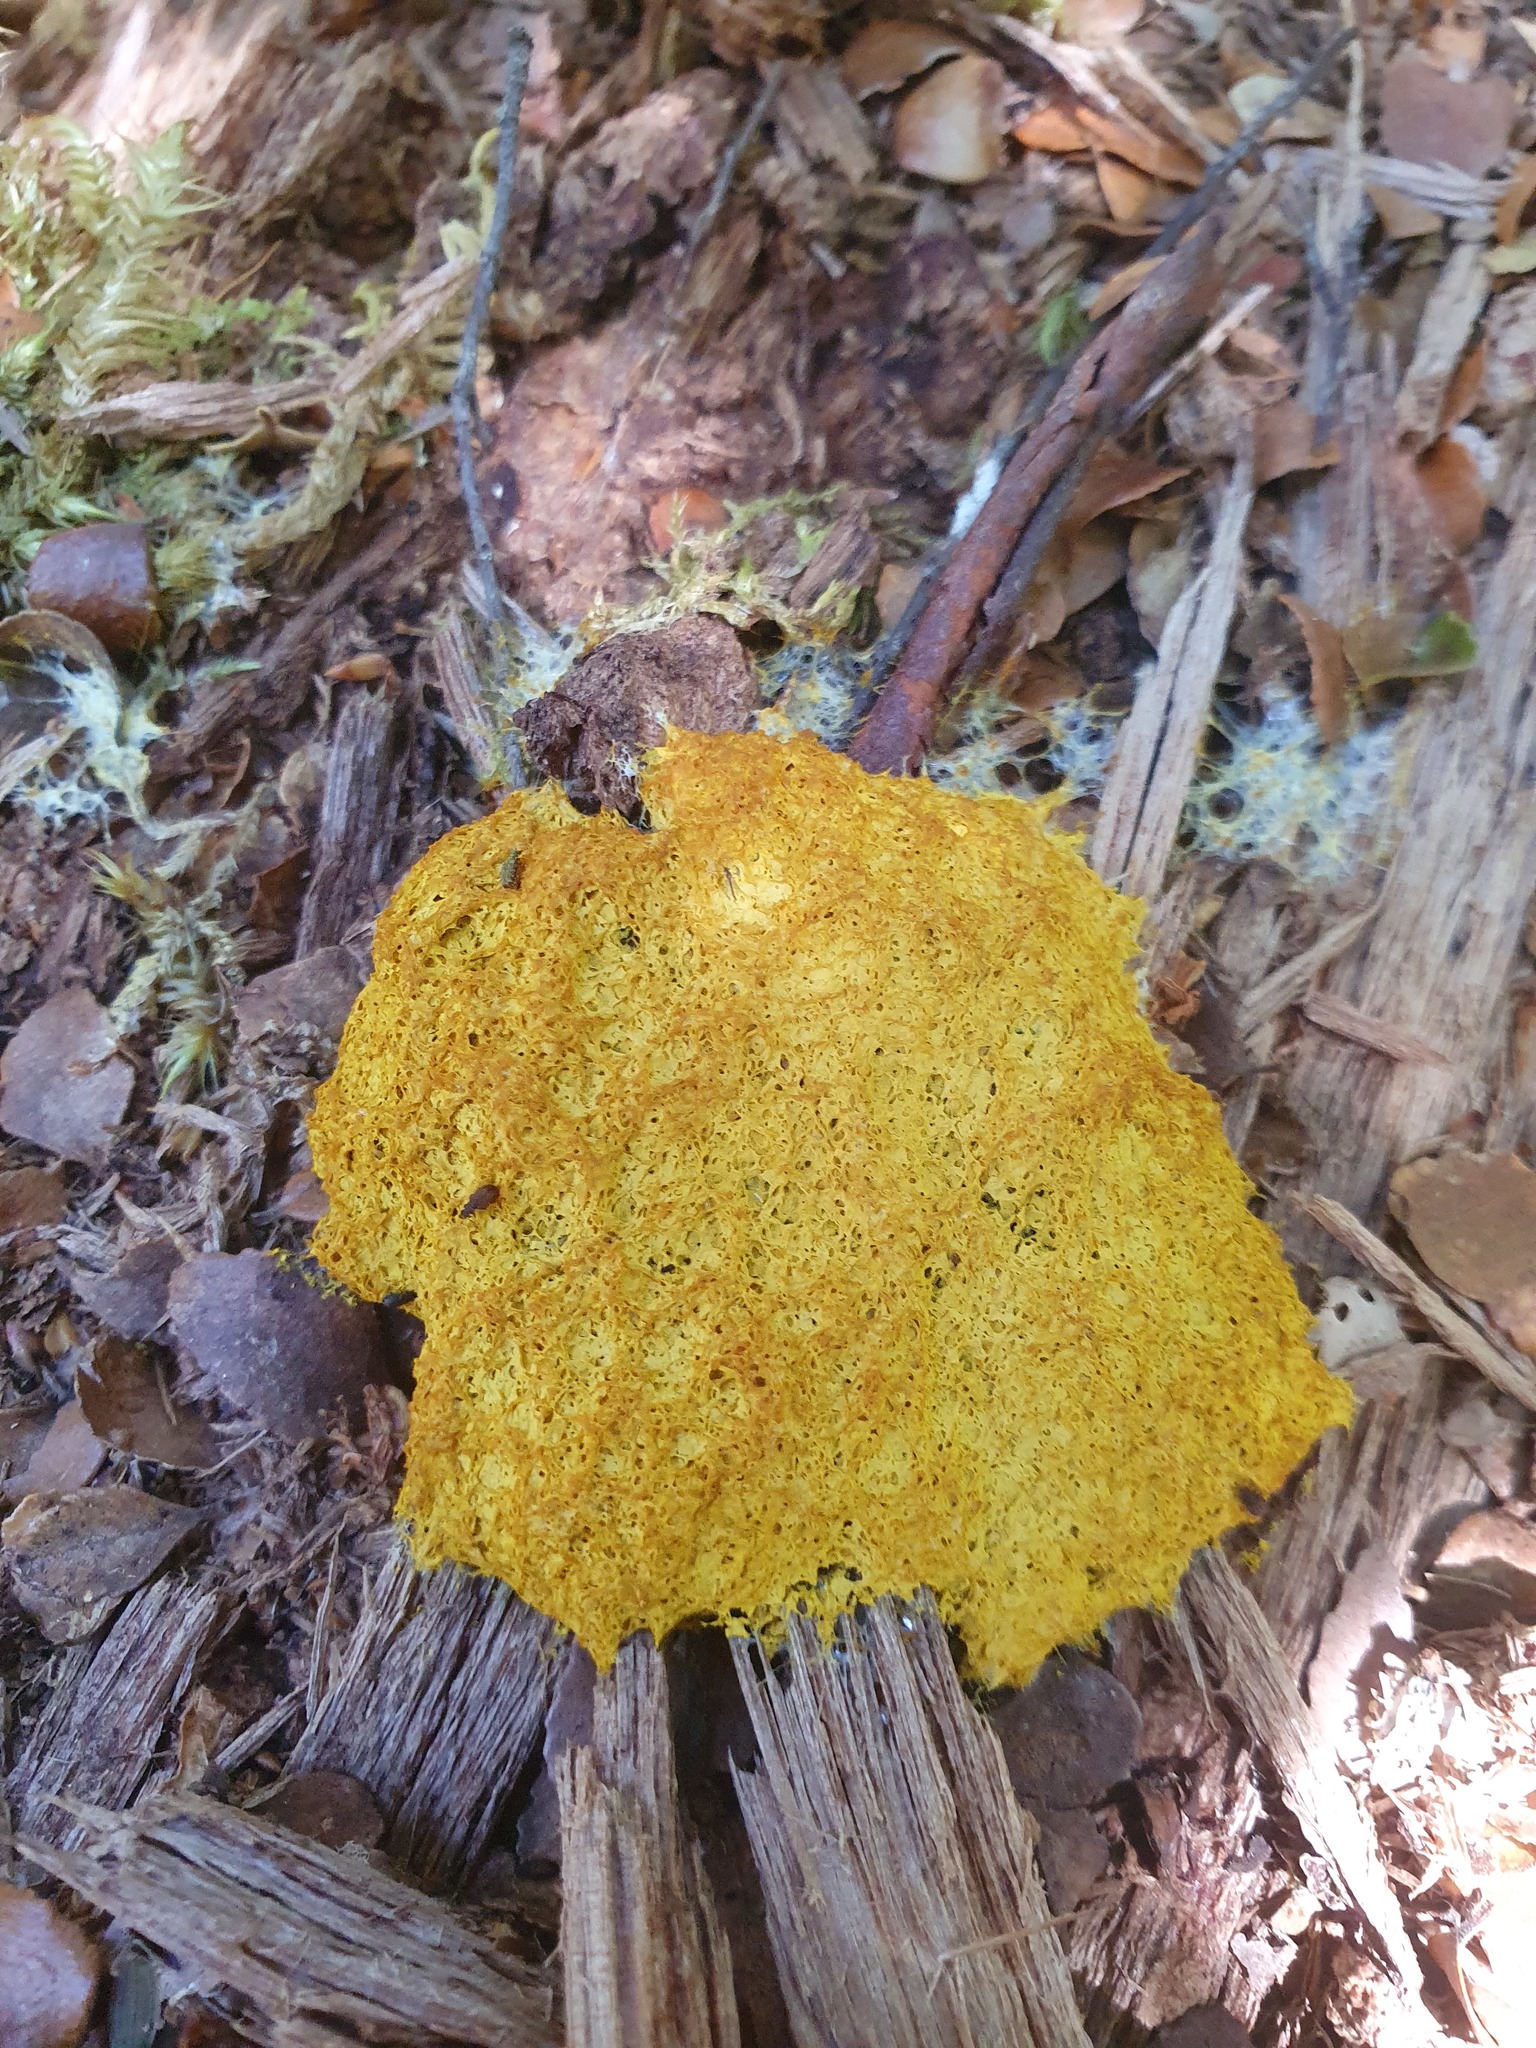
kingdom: Protozoa
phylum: Mycetozoa
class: Myxomycetes
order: Physarales
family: Physaraceae
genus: Fuligo
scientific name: Fuligo septica
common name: Dog vomit slime mold
